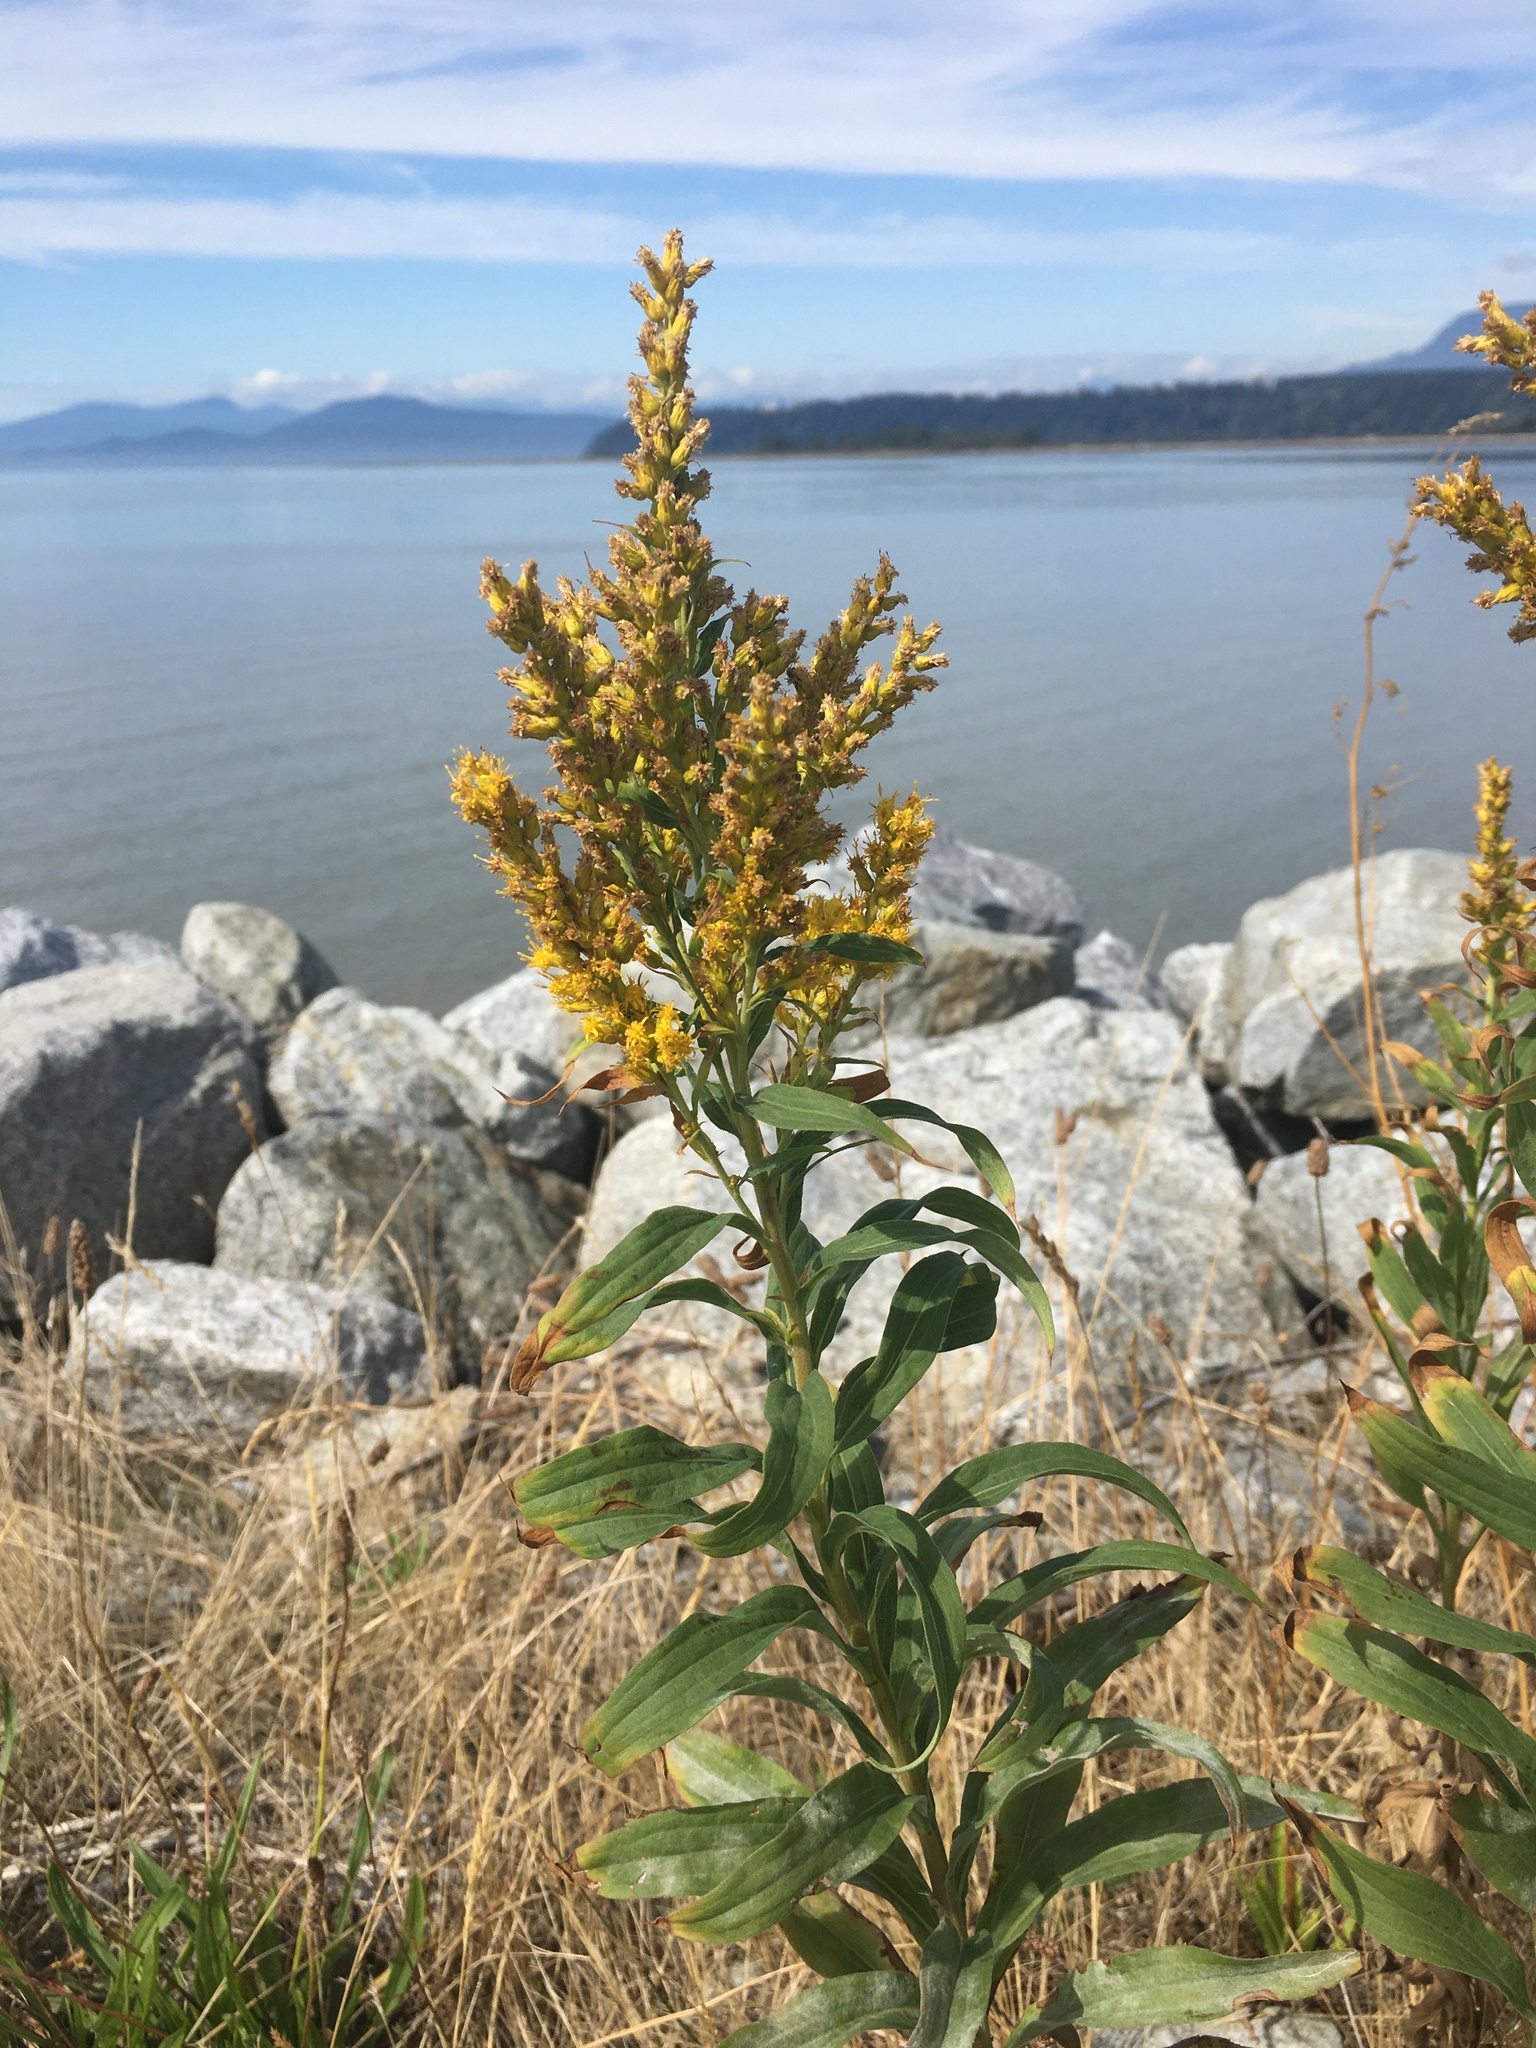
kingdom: Plantae
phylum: Tracheophyta
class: Magnoliopsida
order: Asterales
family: Asteraceae
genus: Solidago
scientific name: Solidago lepida
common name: Western canada goldenrod
